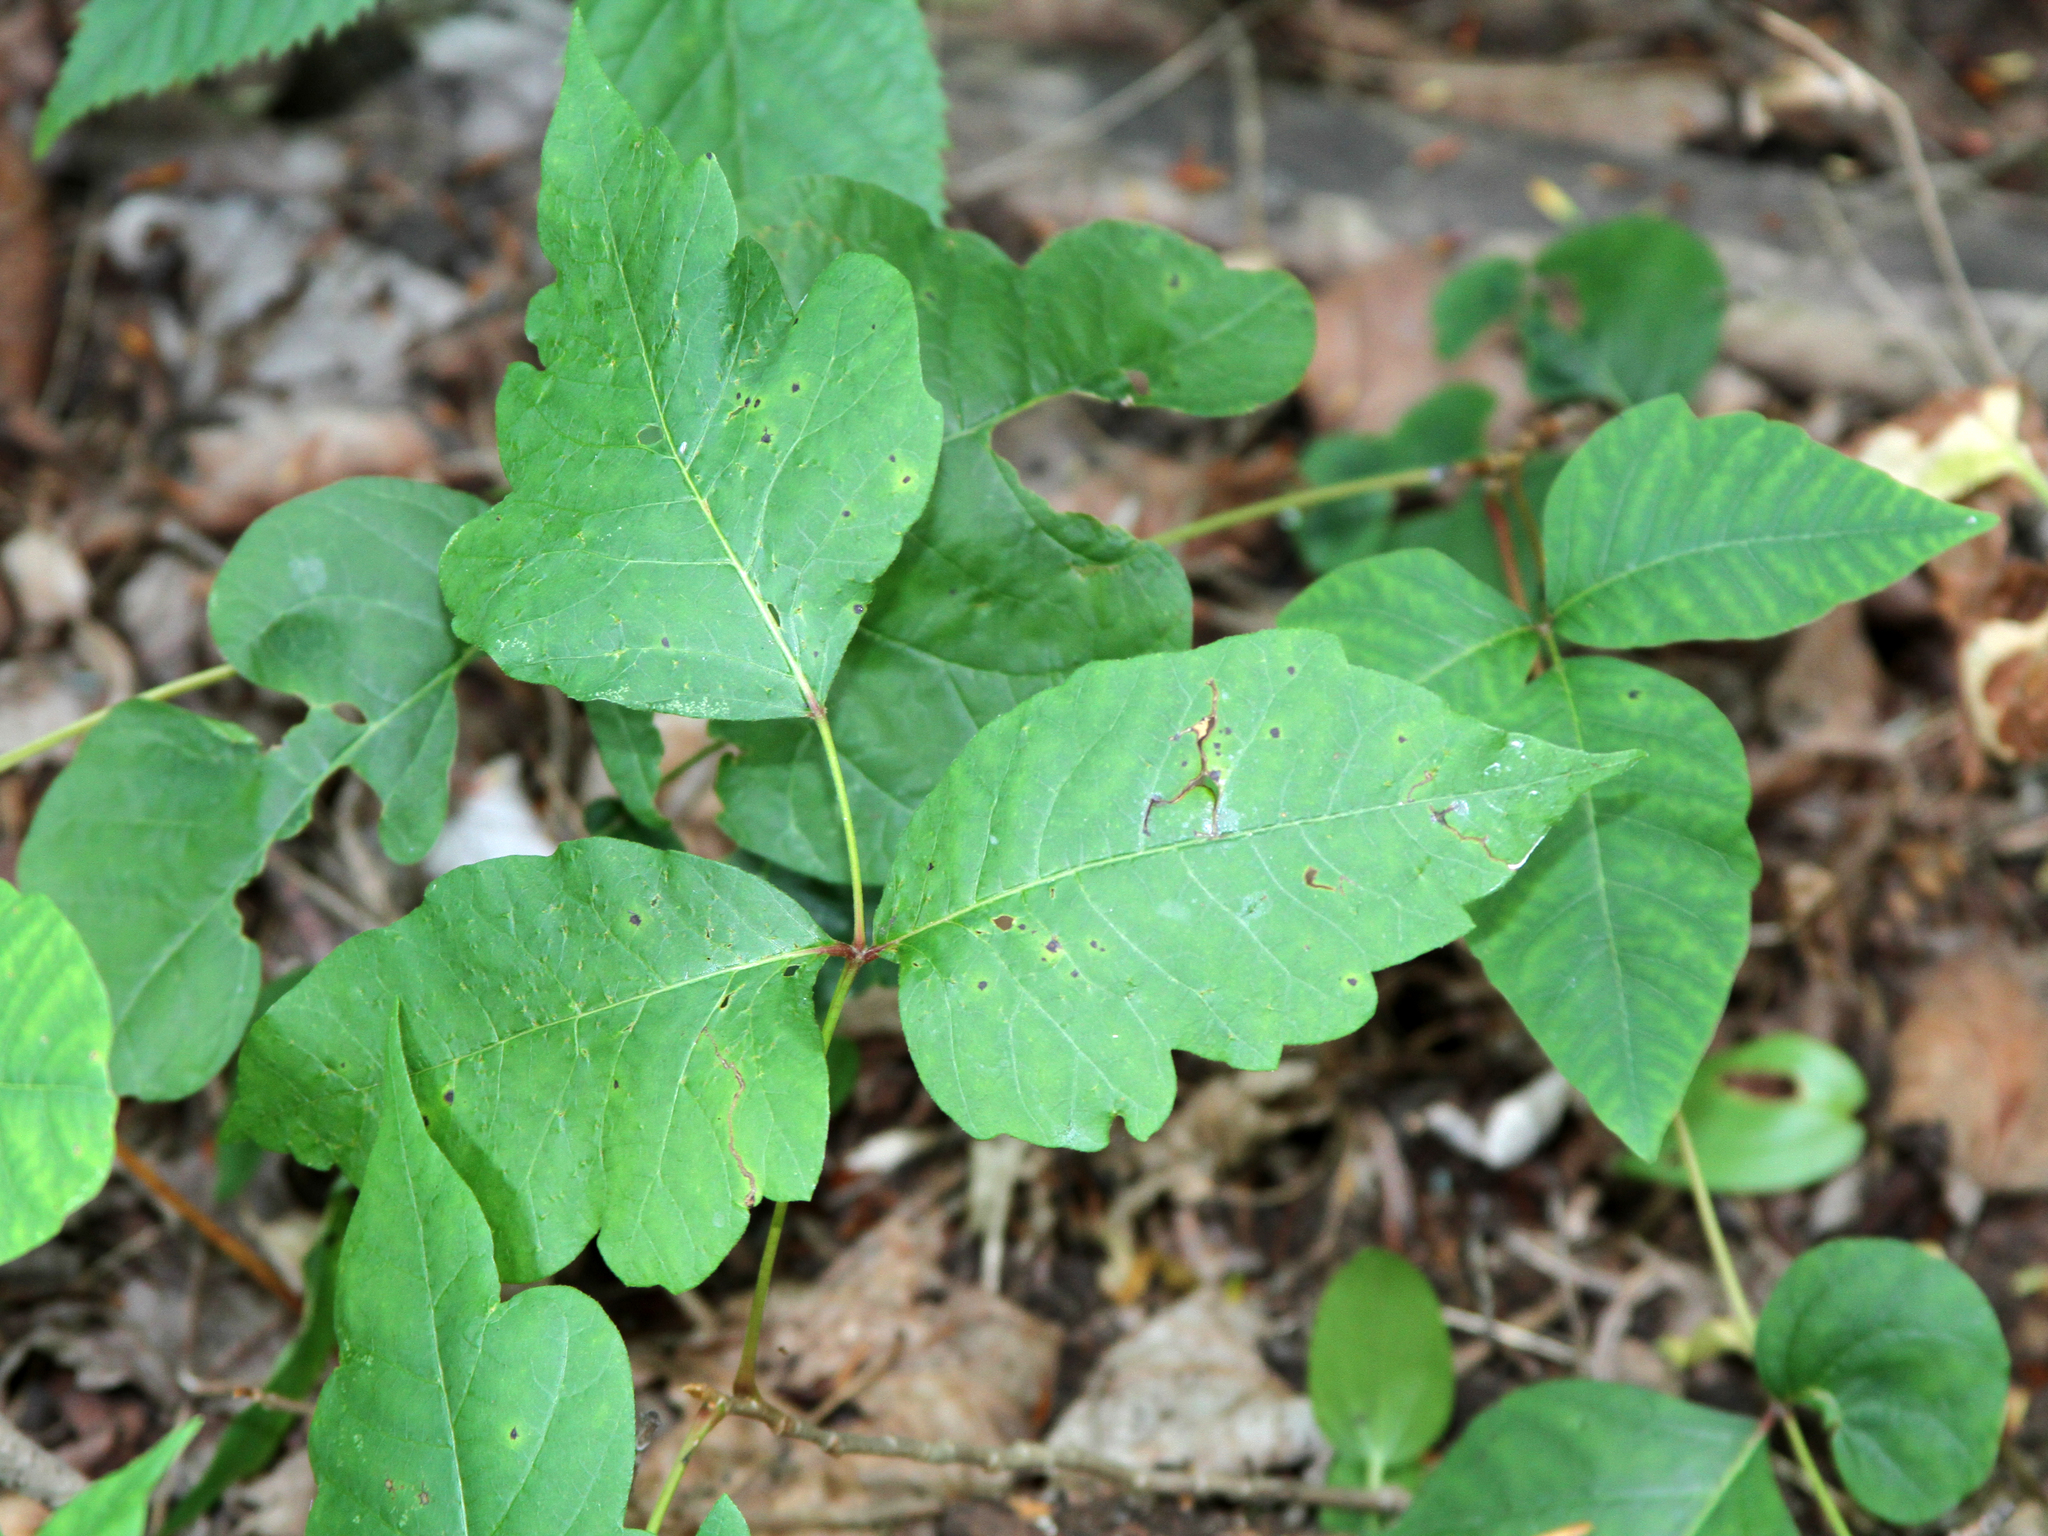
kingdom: Plantae
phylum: Tracheophyta
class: Magnoliopsida
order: Sapindales
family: Anacardiaceae
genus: Toxicodendron
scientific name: Toxicodendron radicans
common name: Poison ivy
